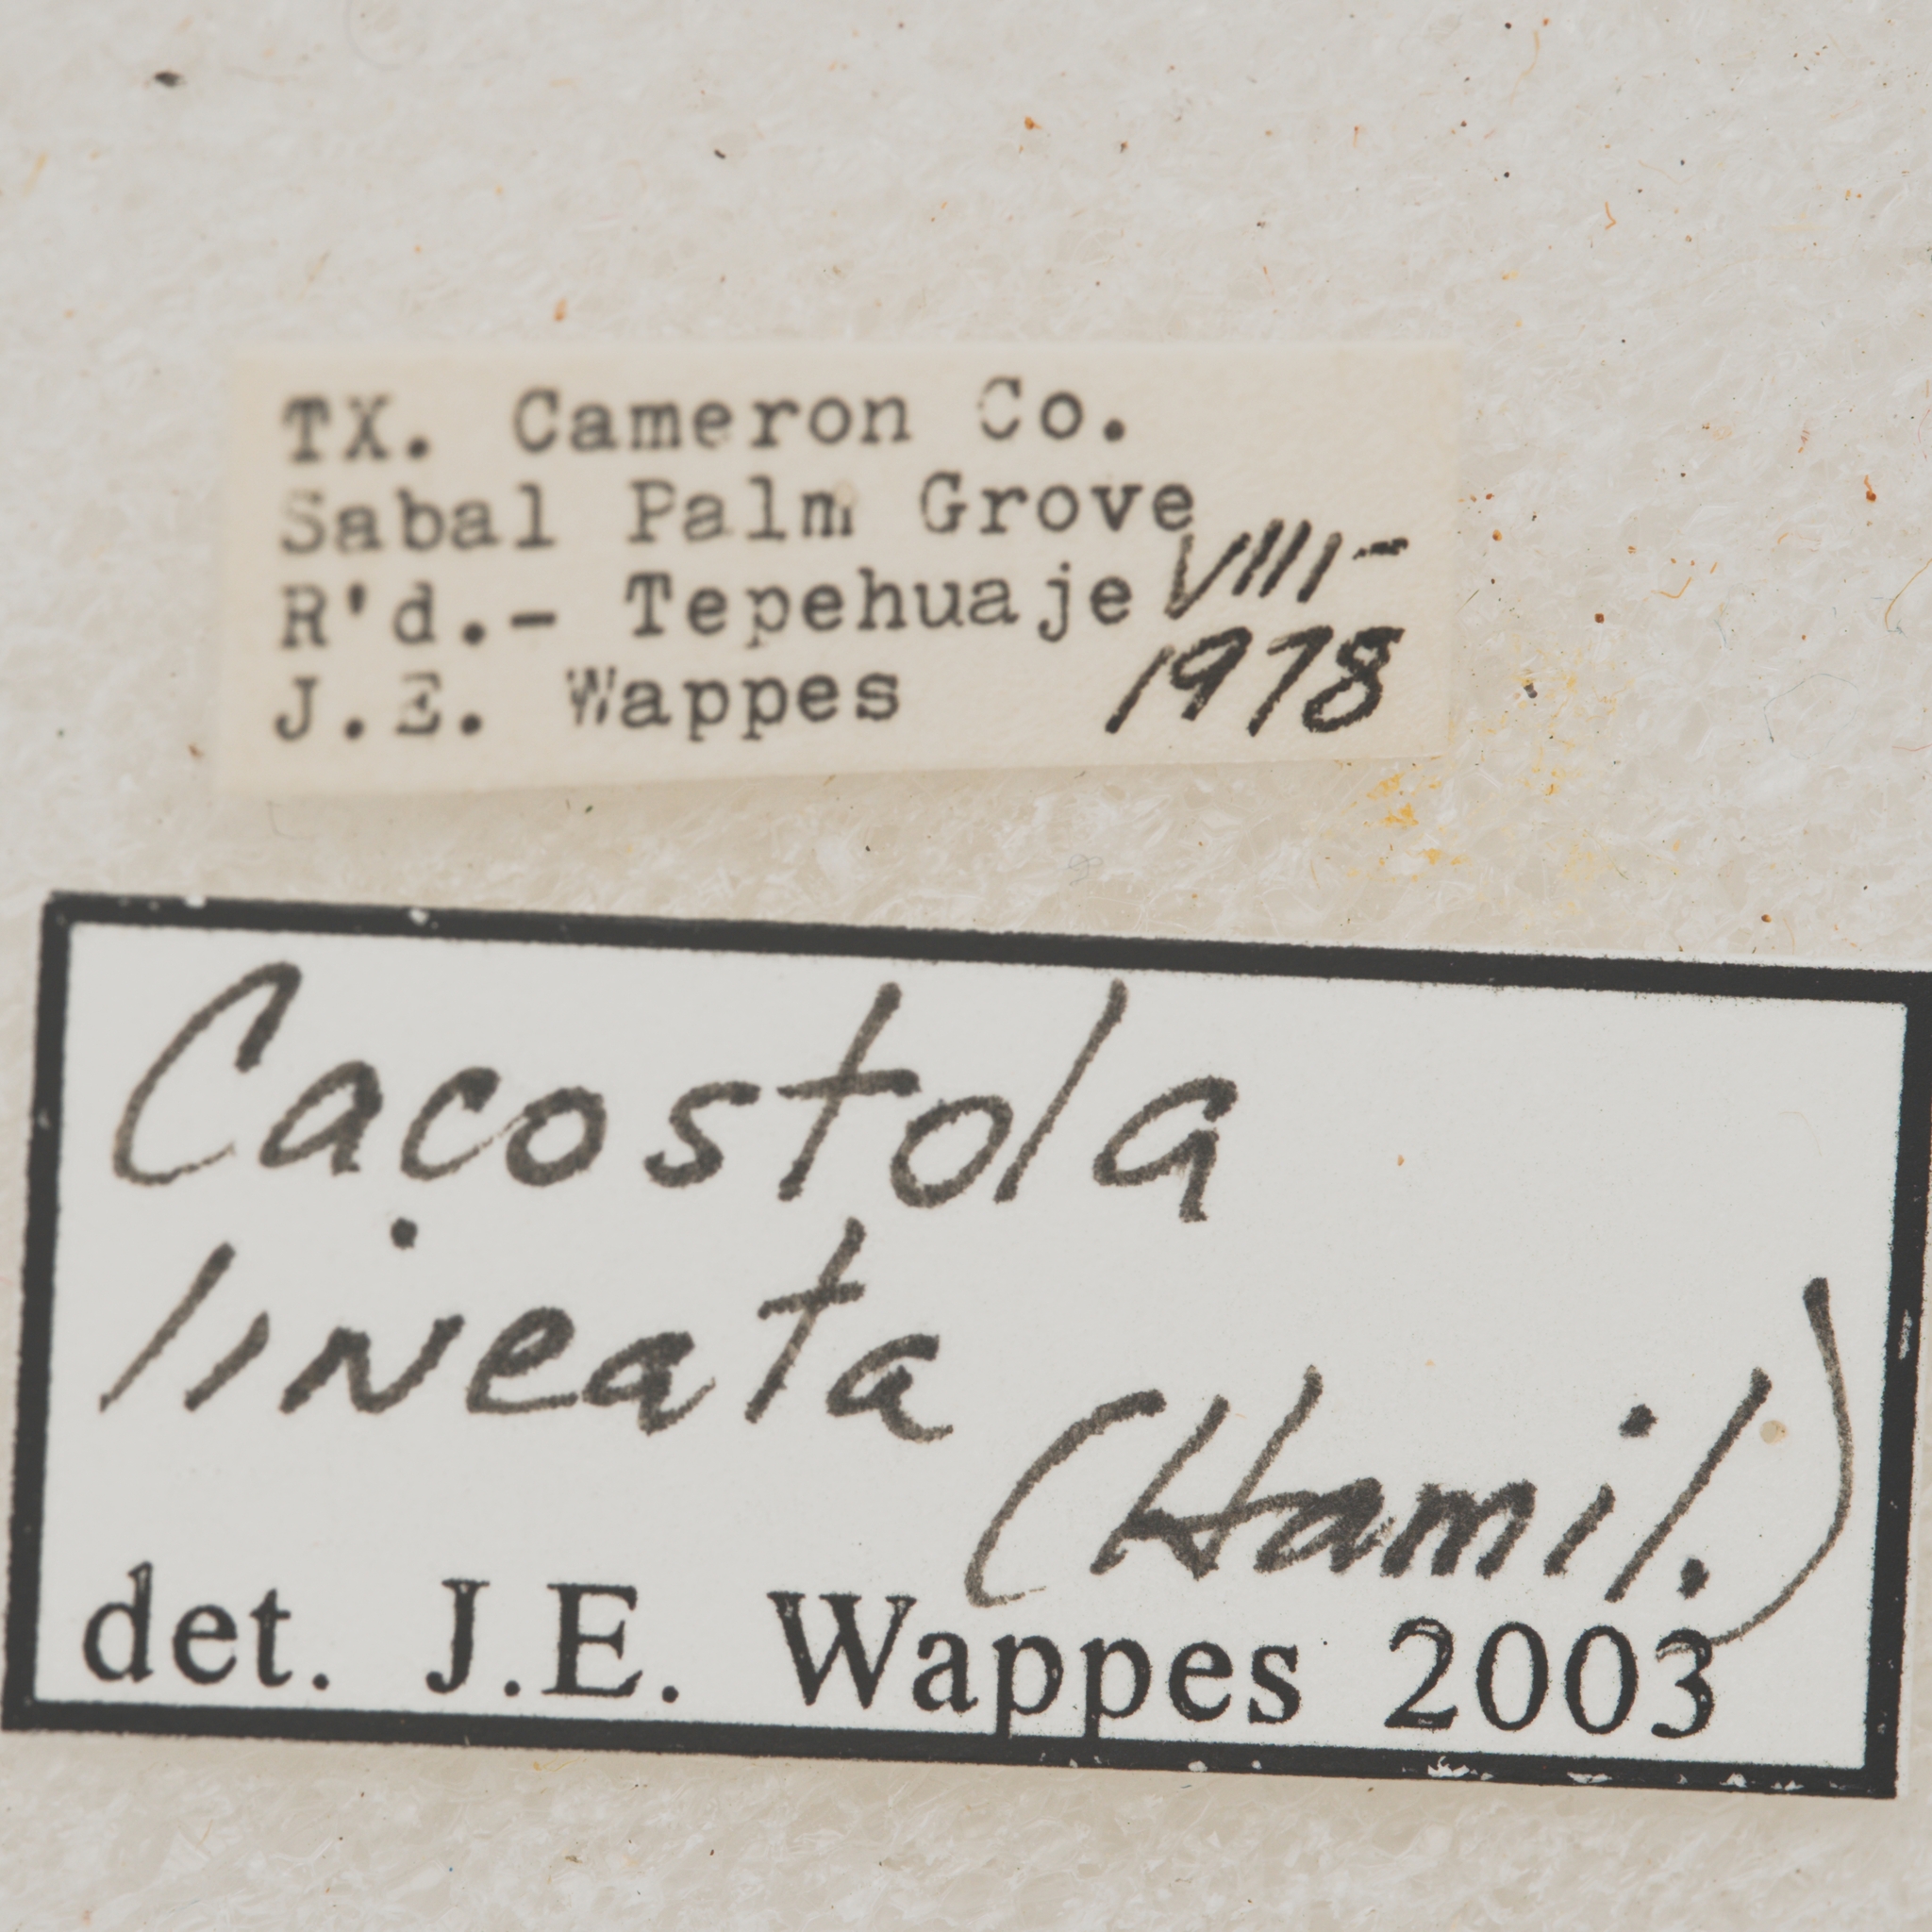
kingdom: Animalia
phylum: Arthropoda
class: Insecta
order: Coleoptera
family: Cerambycidae
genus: Cacostola
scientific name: Cacostola lineata
